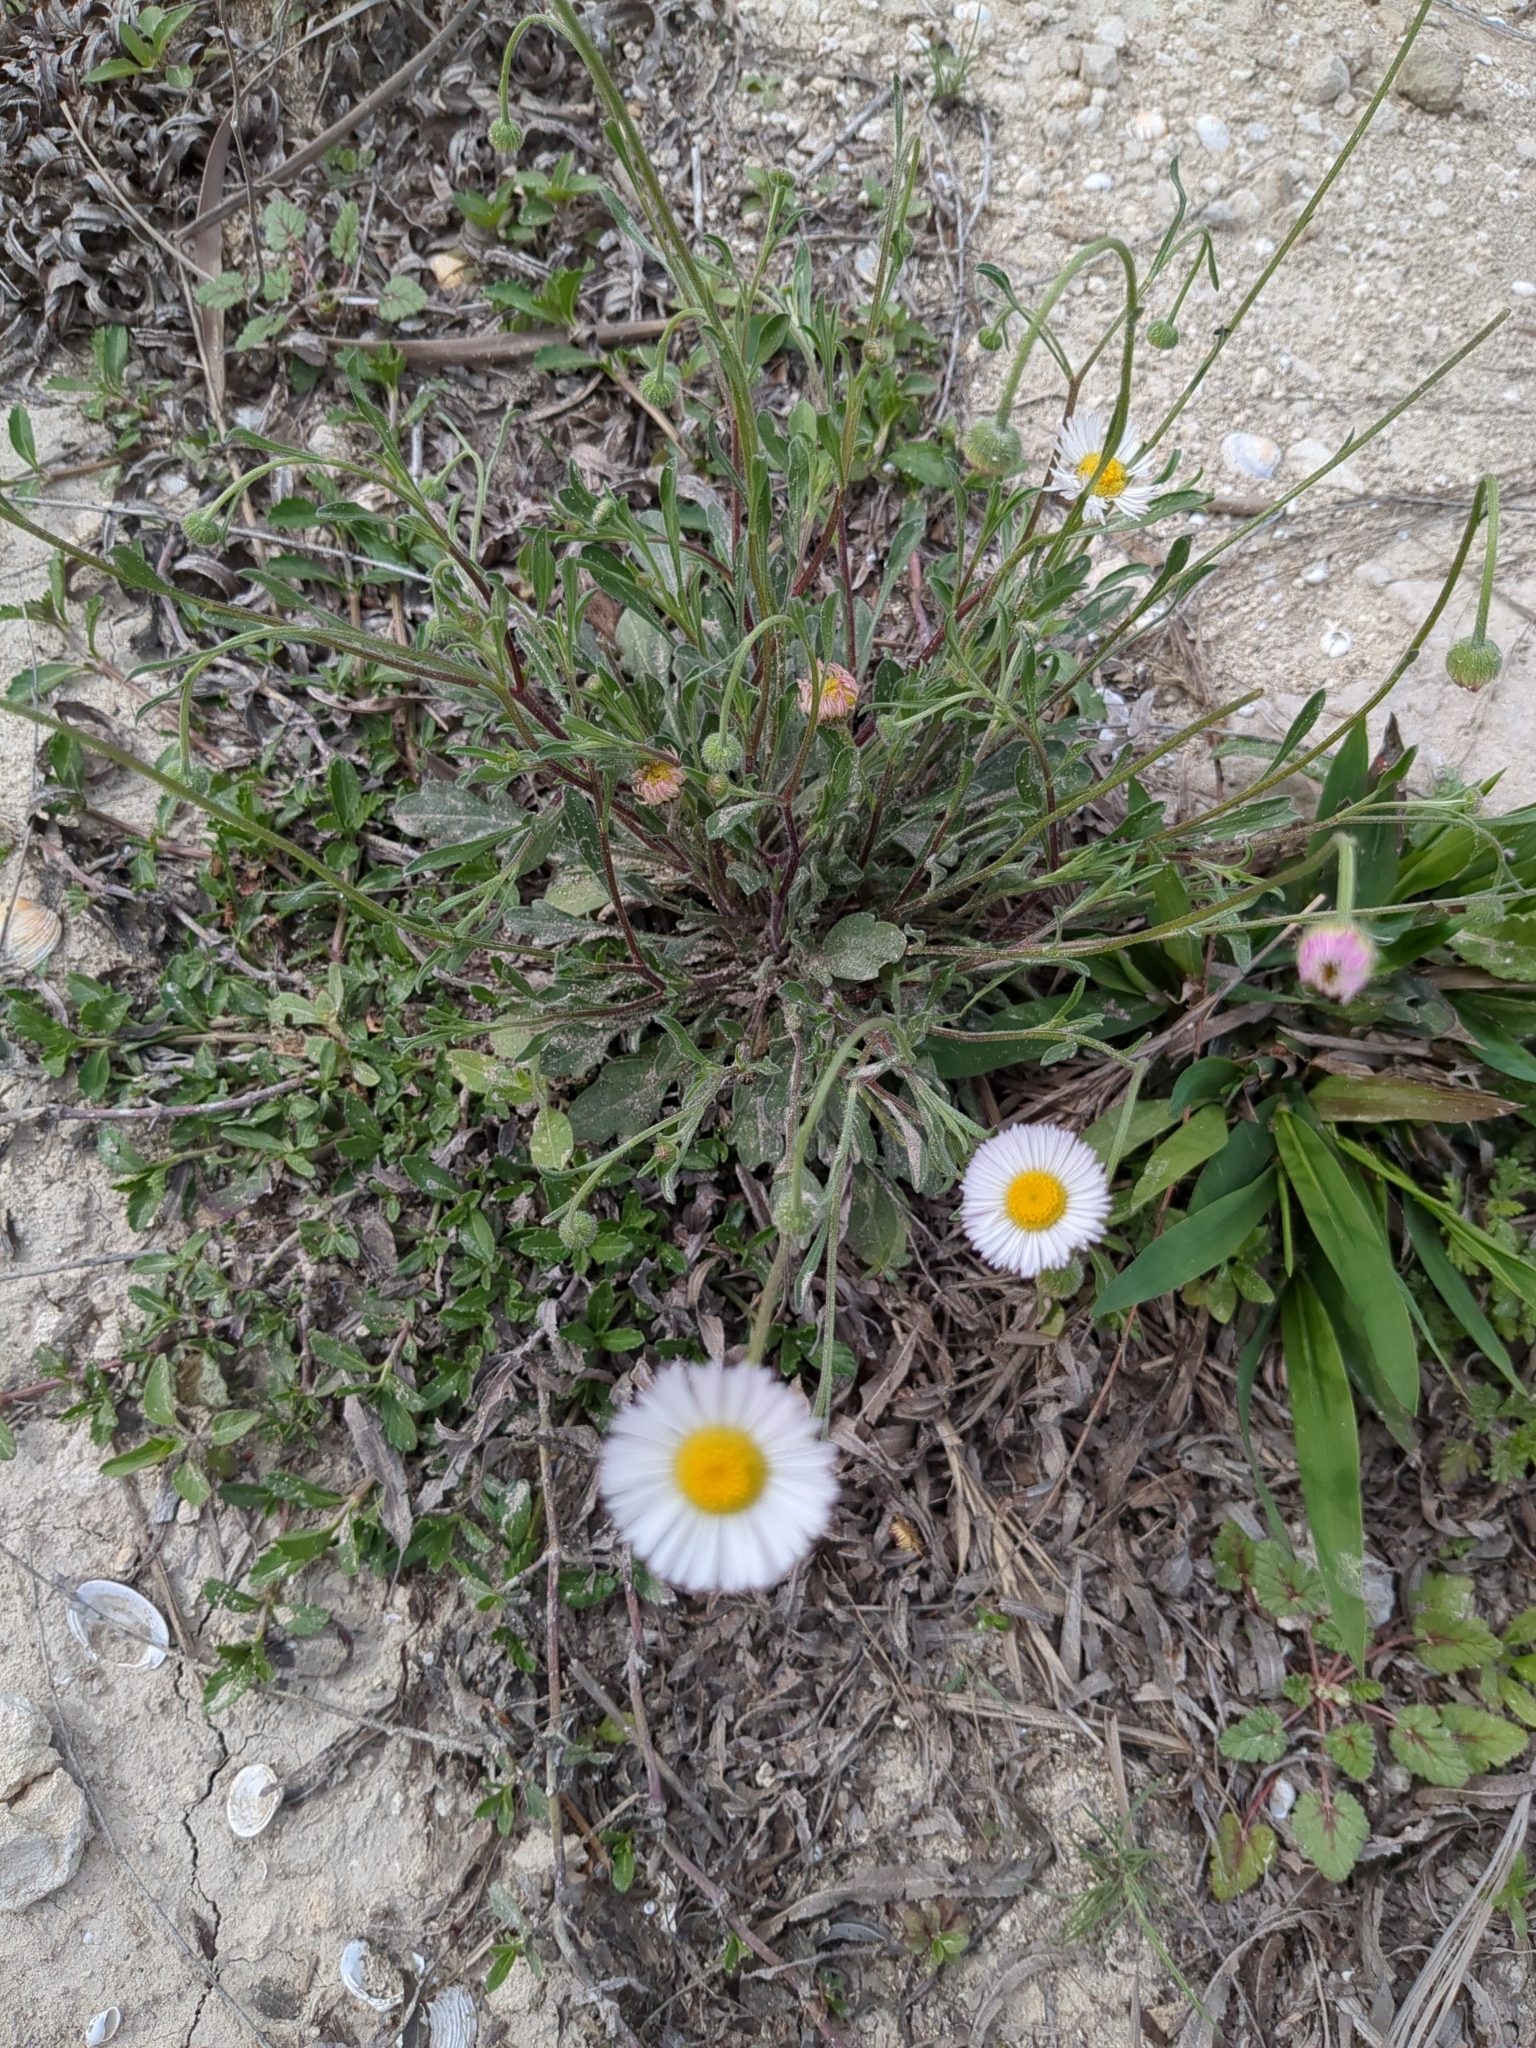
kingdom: Plantae
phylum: Tracheophyta
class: Magnoliopsida
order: Asterales
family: Asteraceae
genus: Erigeron
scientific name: Erigeron modestus
